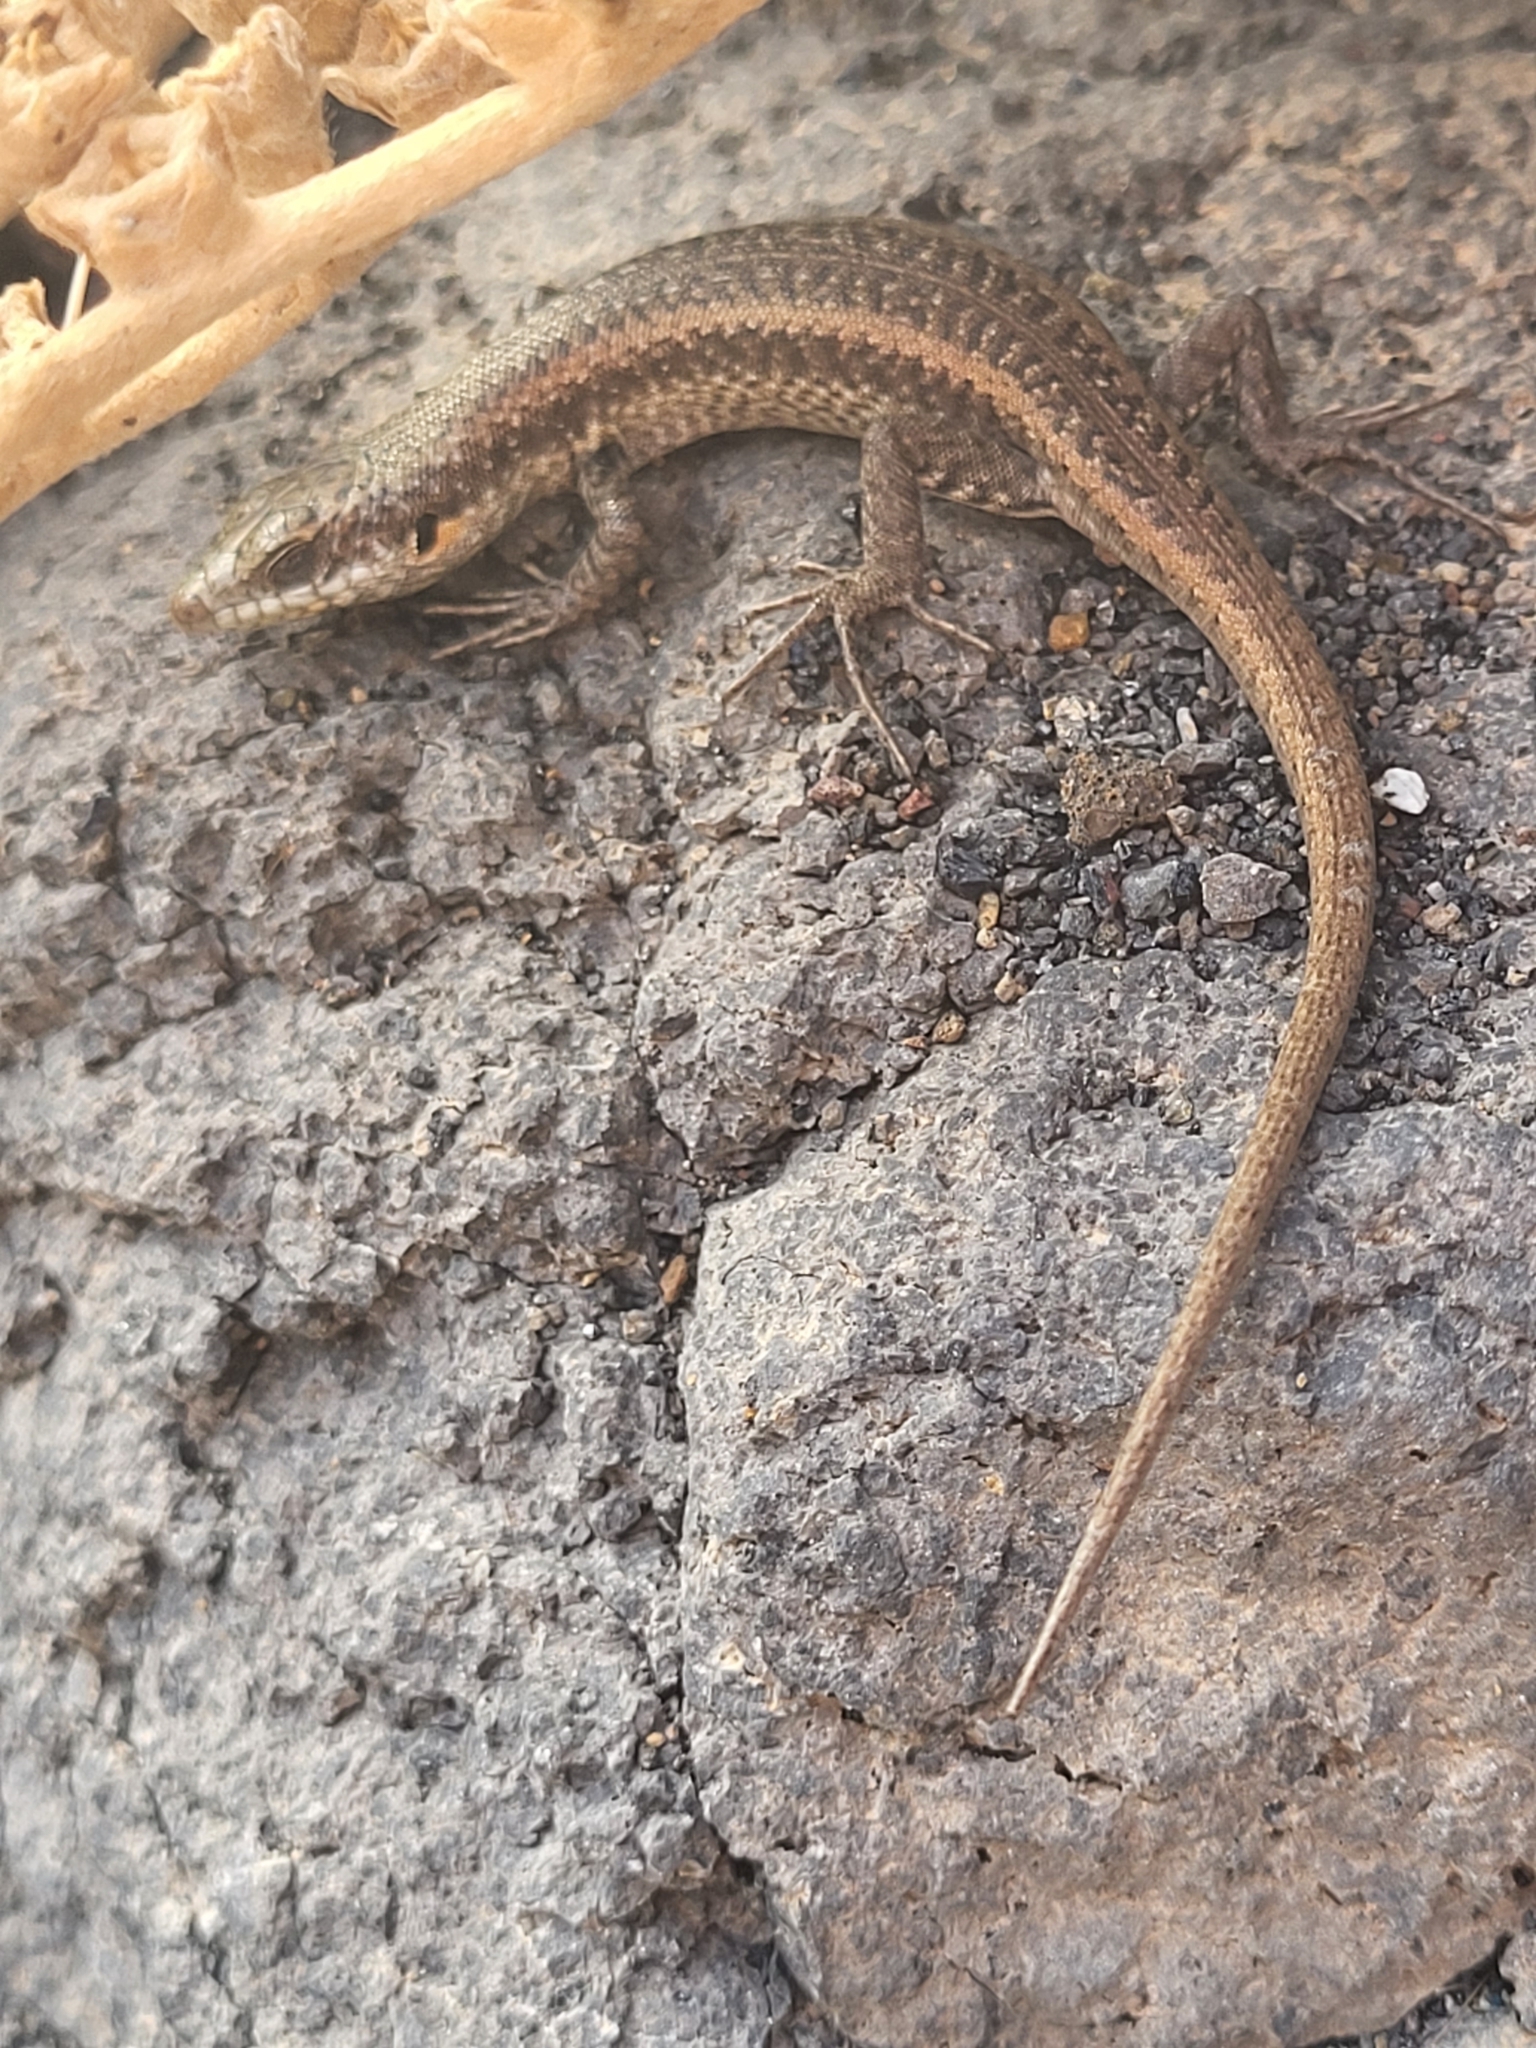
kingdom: Animalia
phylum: Chordata
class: Squamata
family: Scincidae
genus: Chioninia
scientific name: Chioninia fogoensis
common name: Fogo's mabuya
